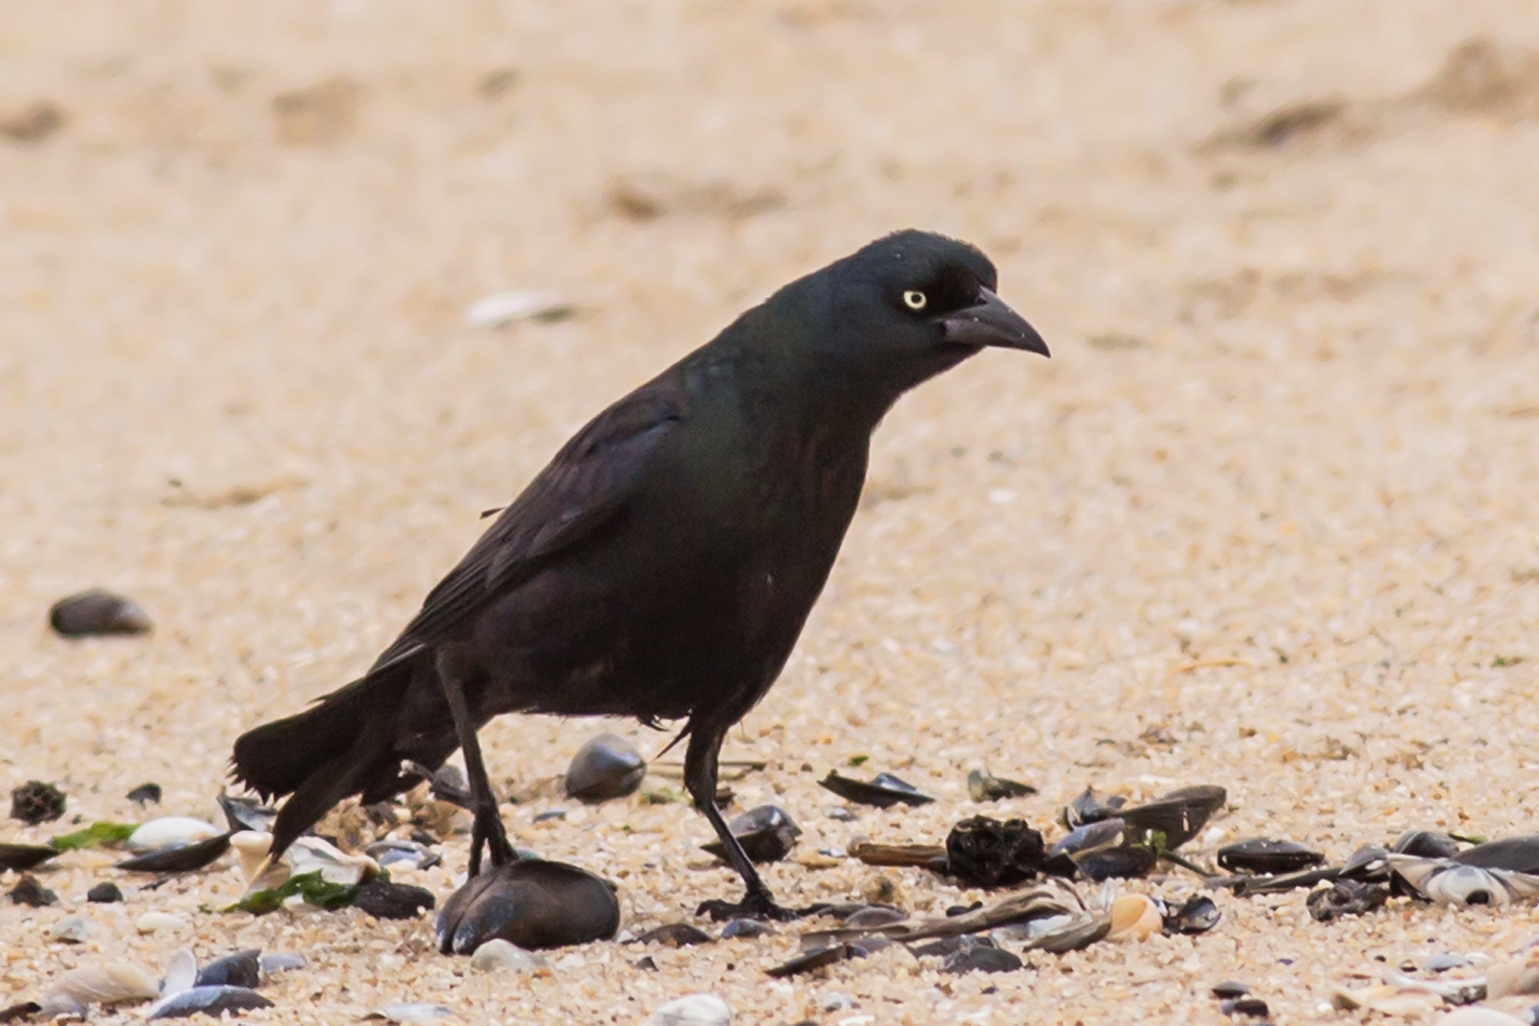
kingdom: Animalia
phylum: Chordata
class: Aves
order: Passeriformes
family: Icteridae
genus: Quiscalus
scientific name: Quiscalus quiscula
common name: Common grackle
